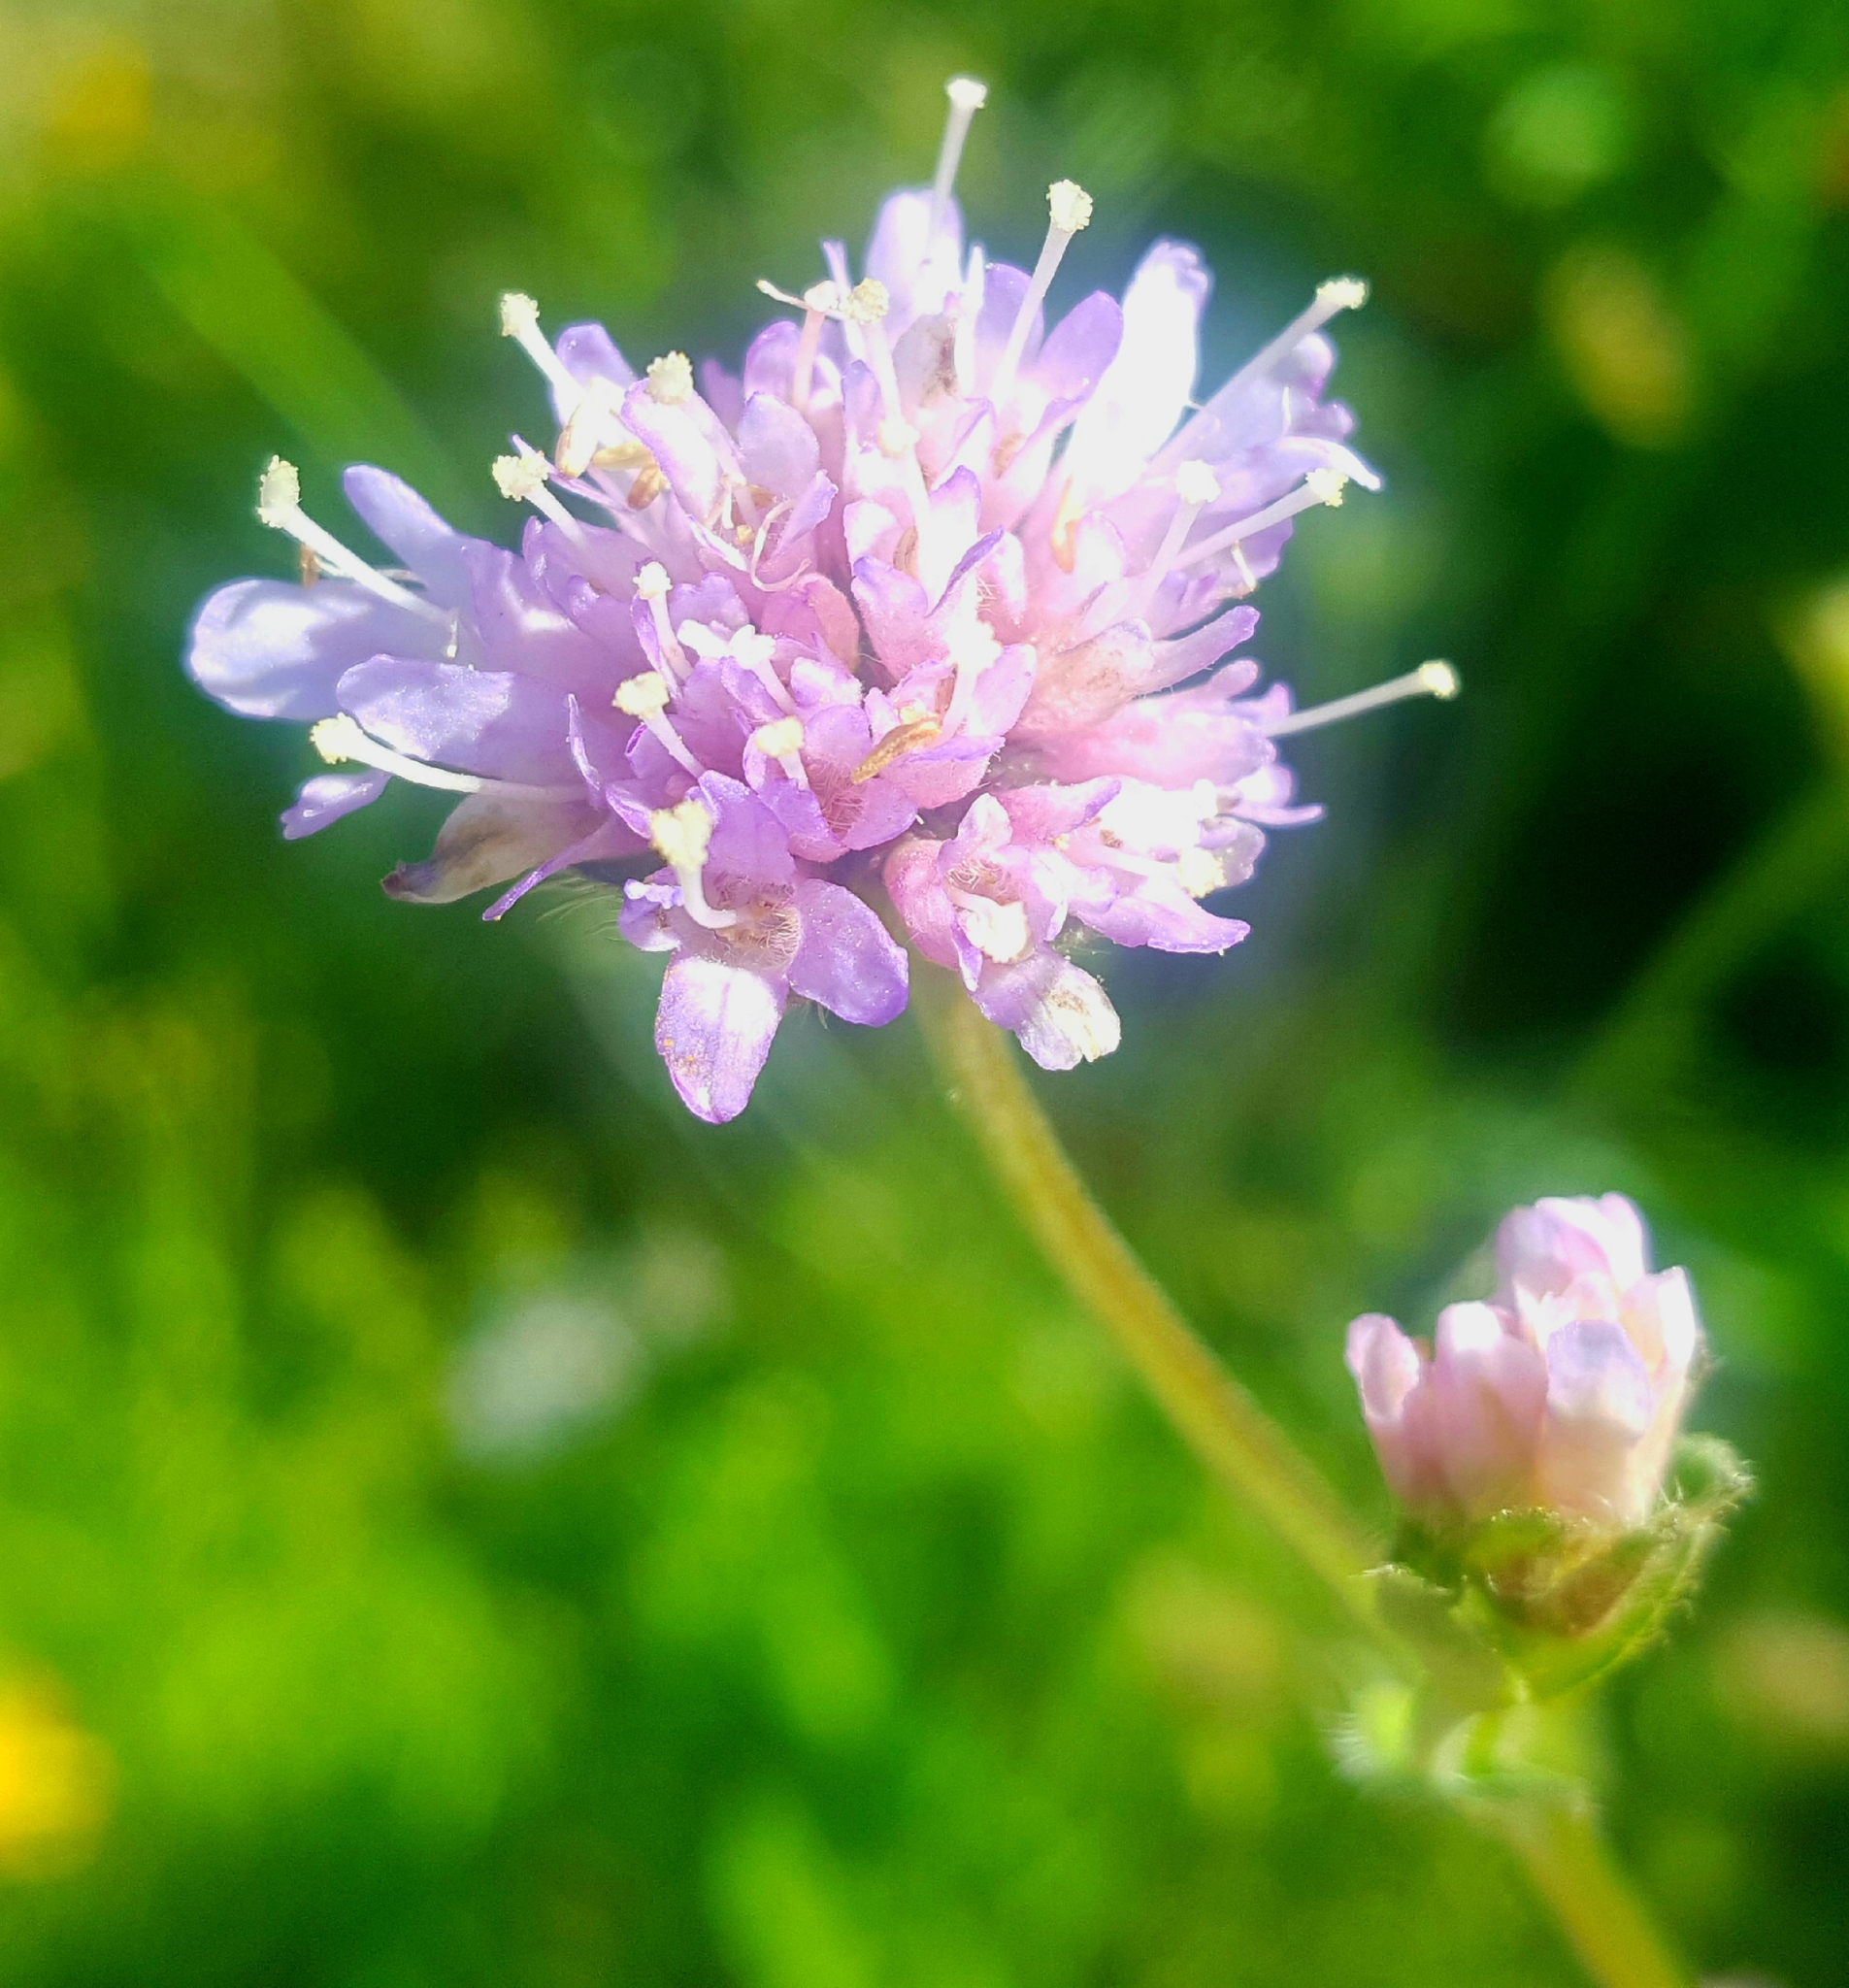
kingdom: Plantae
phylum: Tracheophyta
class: Magnoliopsida
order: Dipsacales
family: Caprifoliaceae
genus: Knautia
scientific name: Knautia arvensis
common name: Field scabiosa
